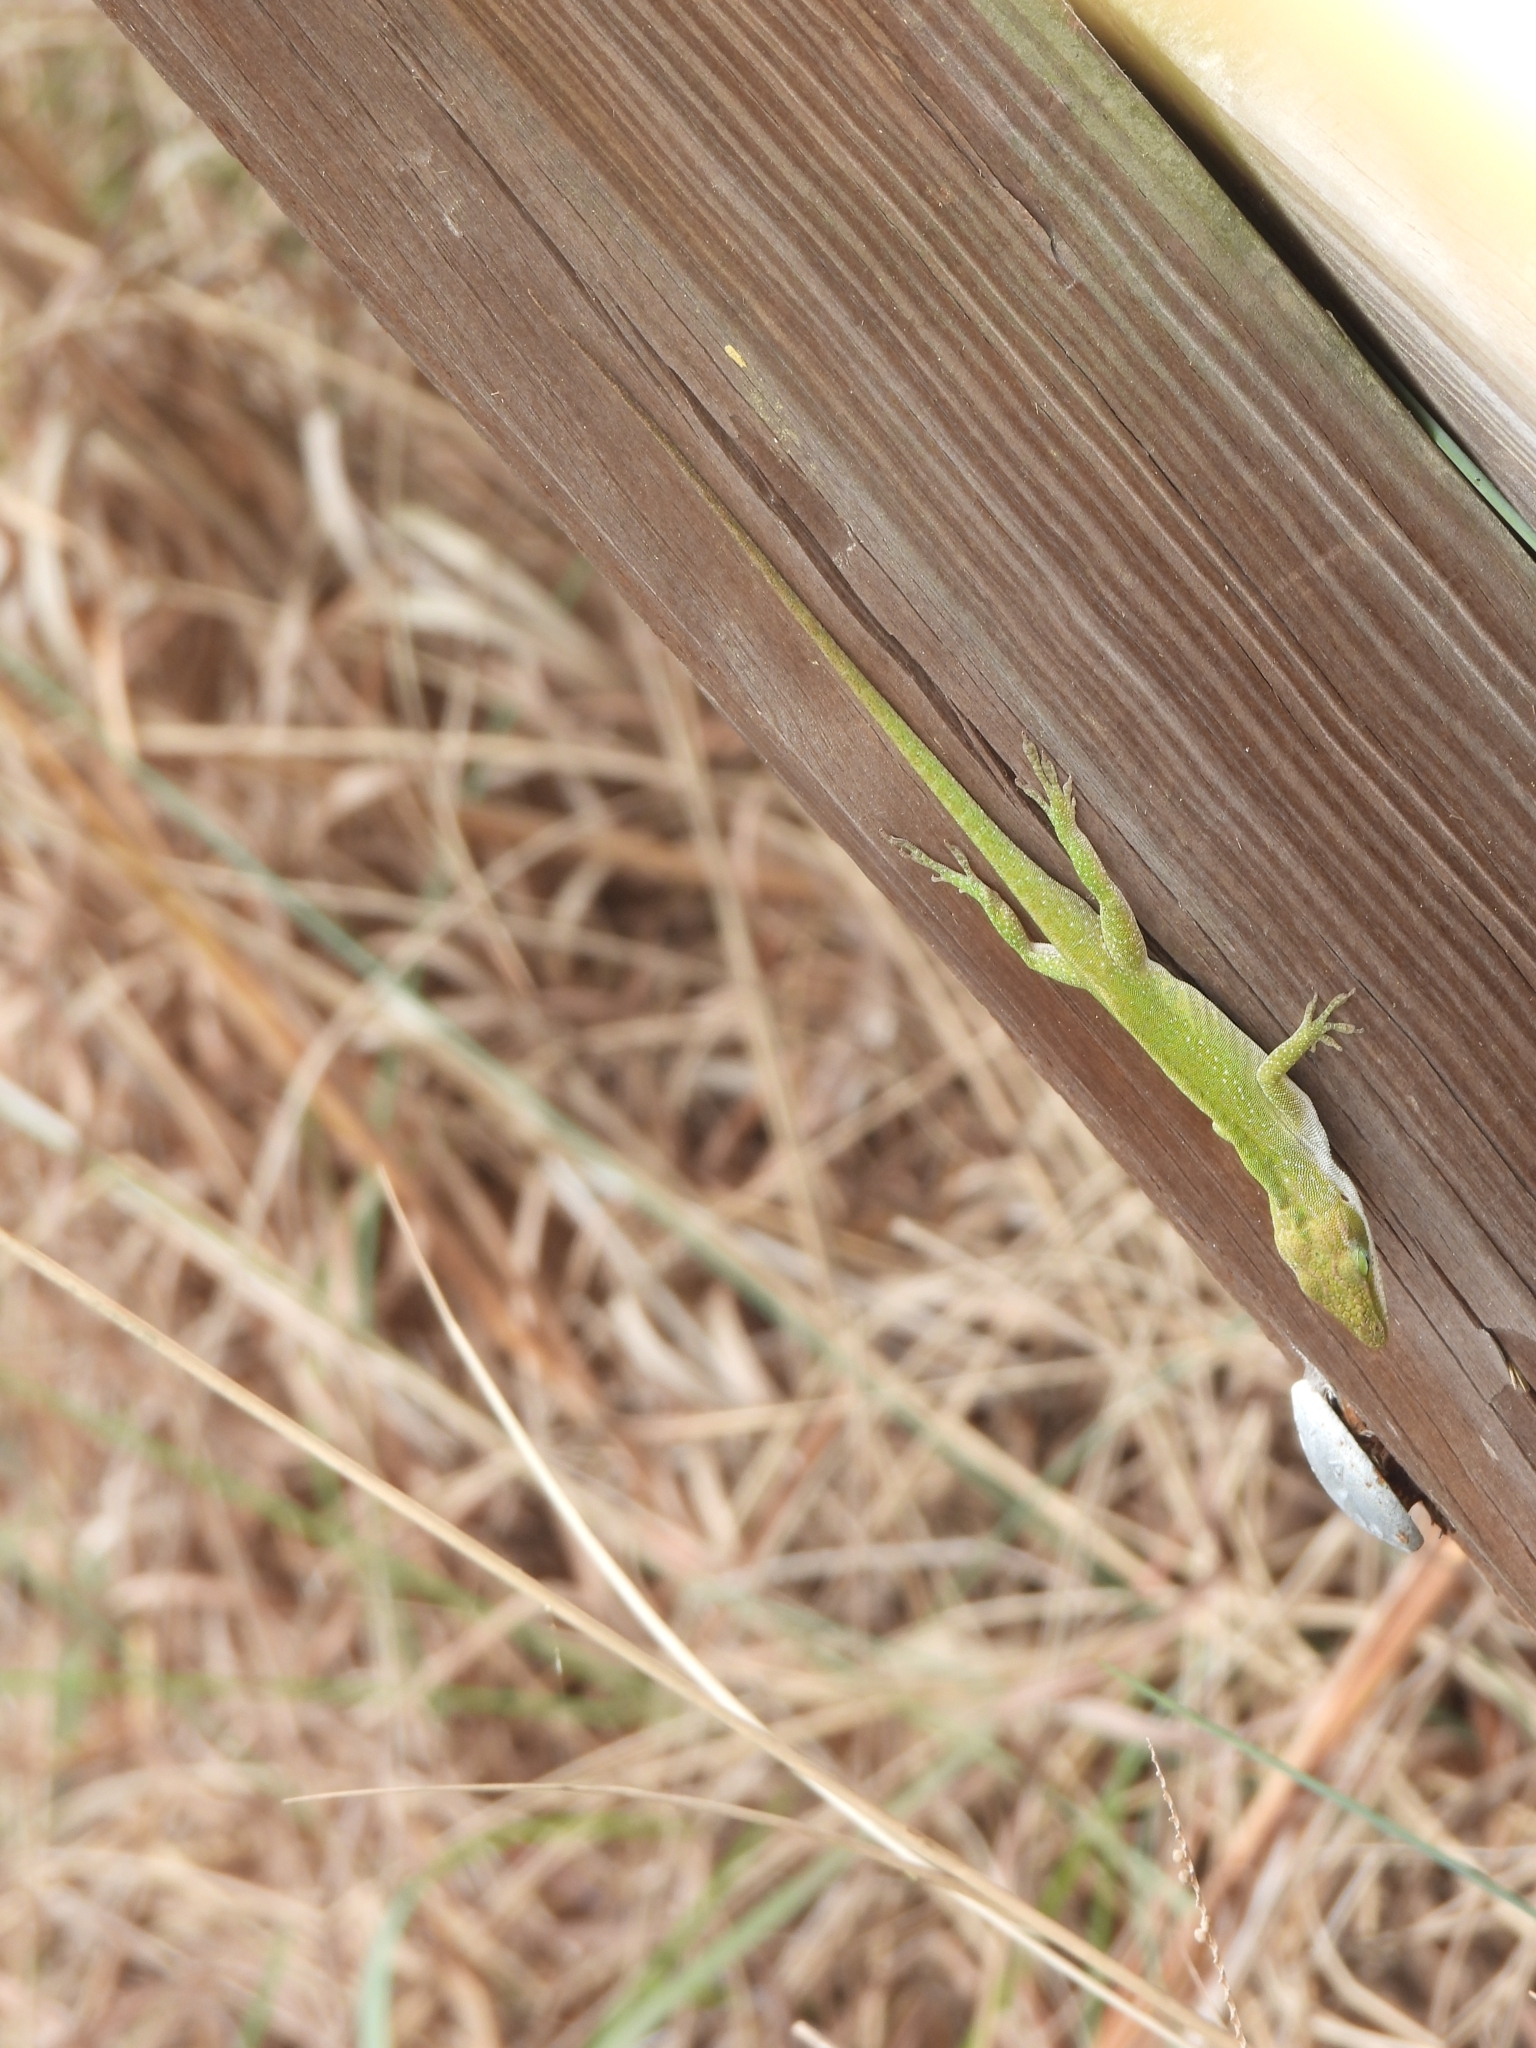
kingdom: Animalia
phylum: Chordata
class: Squamata
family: Dactyloidae
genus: Anolis
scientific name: Anolis carolinensis
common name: Green anole
